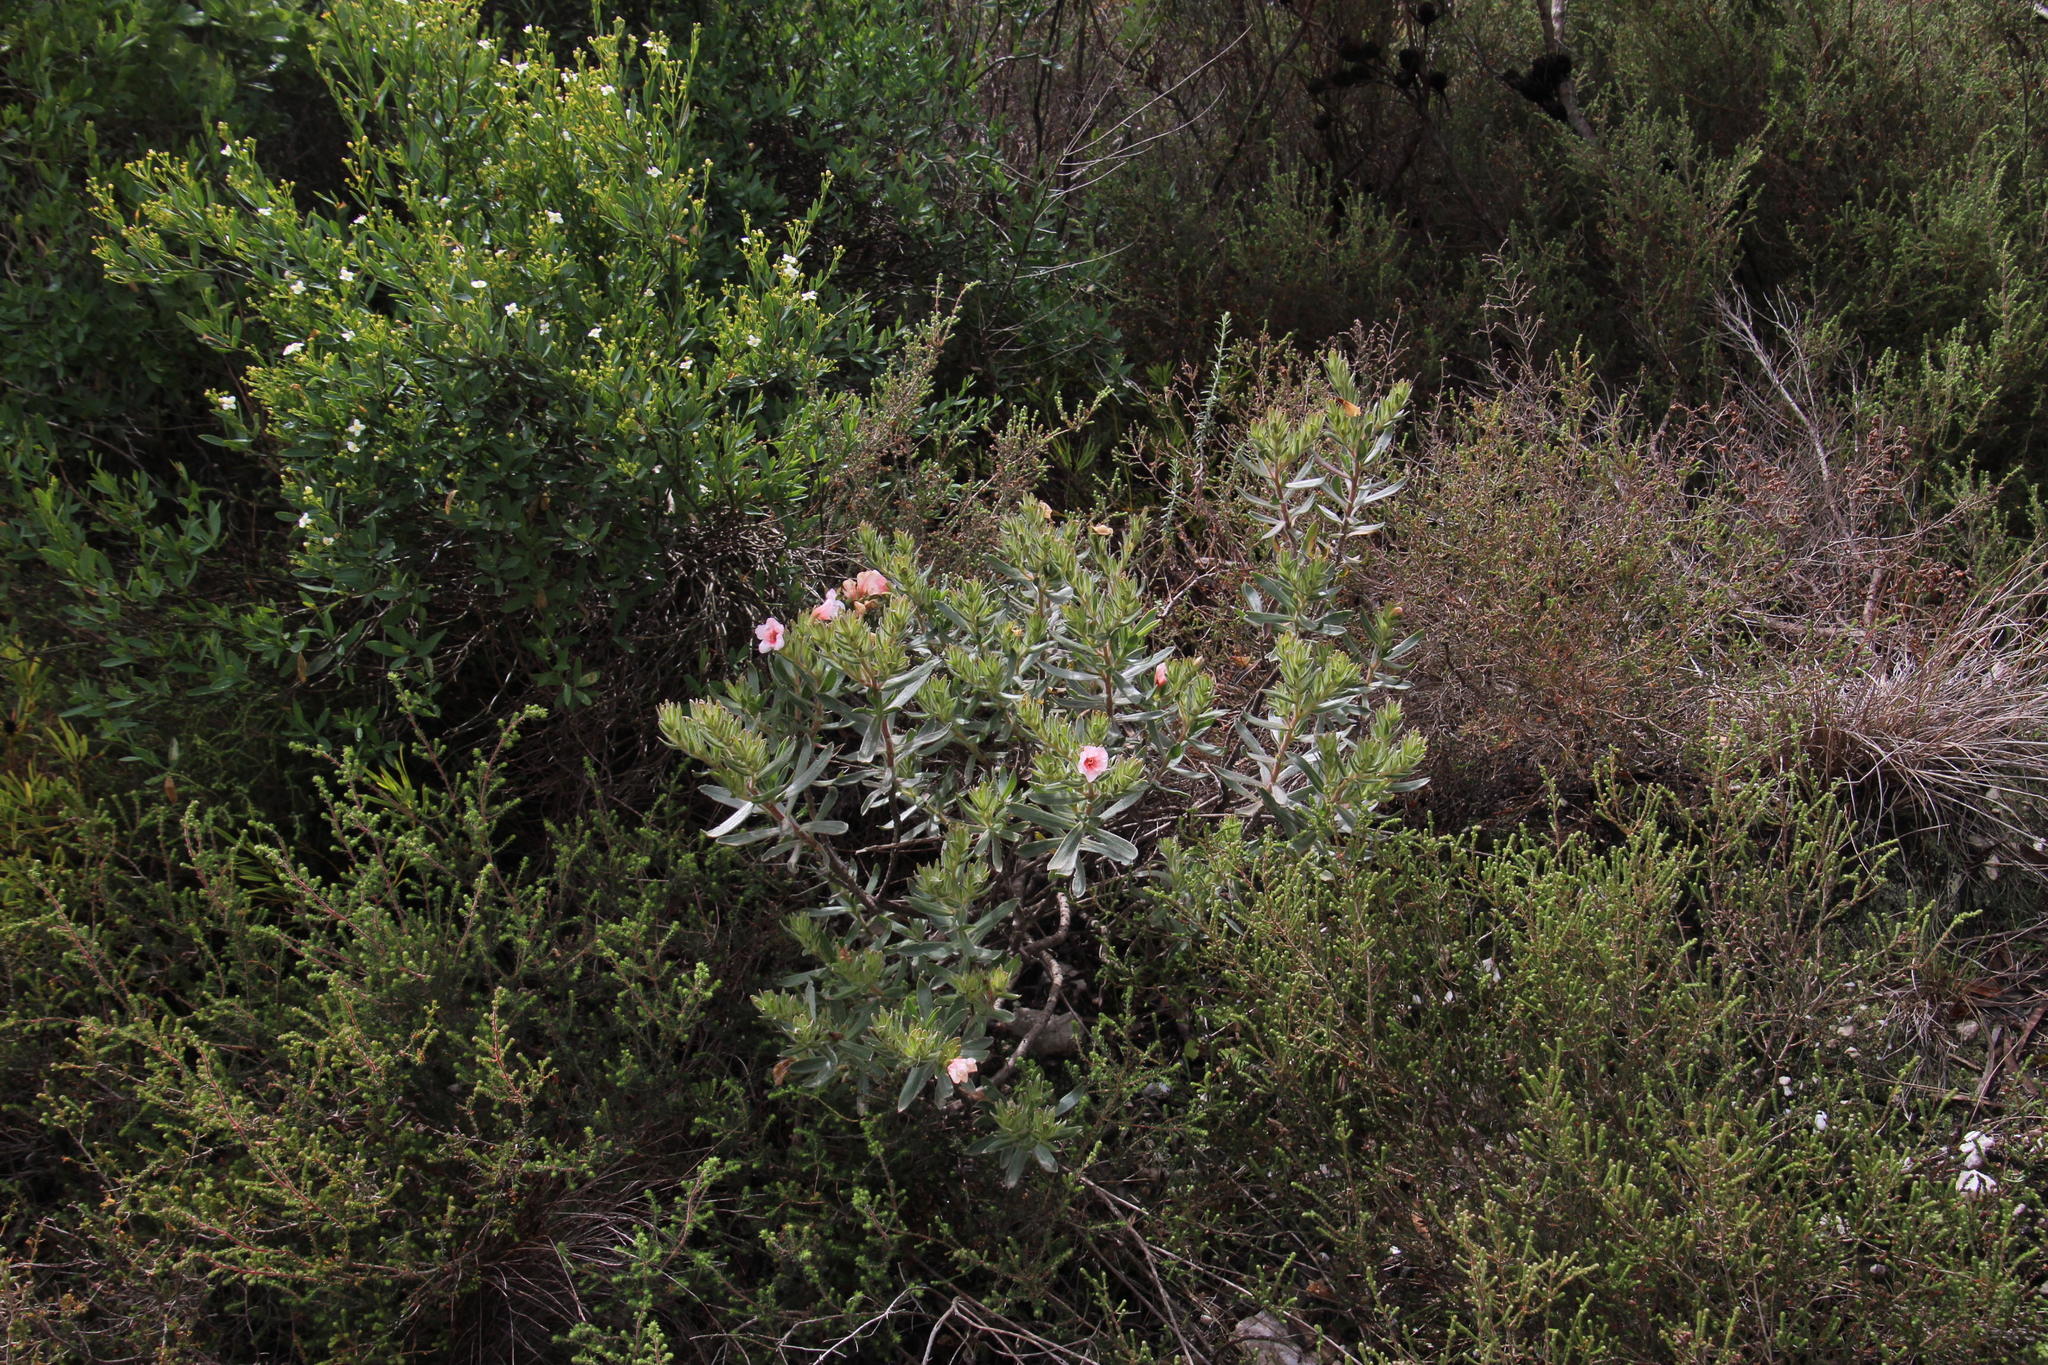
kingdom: Plantae
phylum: Tracheophyta
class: Magnoliopsida
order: Boraginales
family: Boraginaceae
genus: Lobostemon
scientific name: Lobostemon curvifolius
